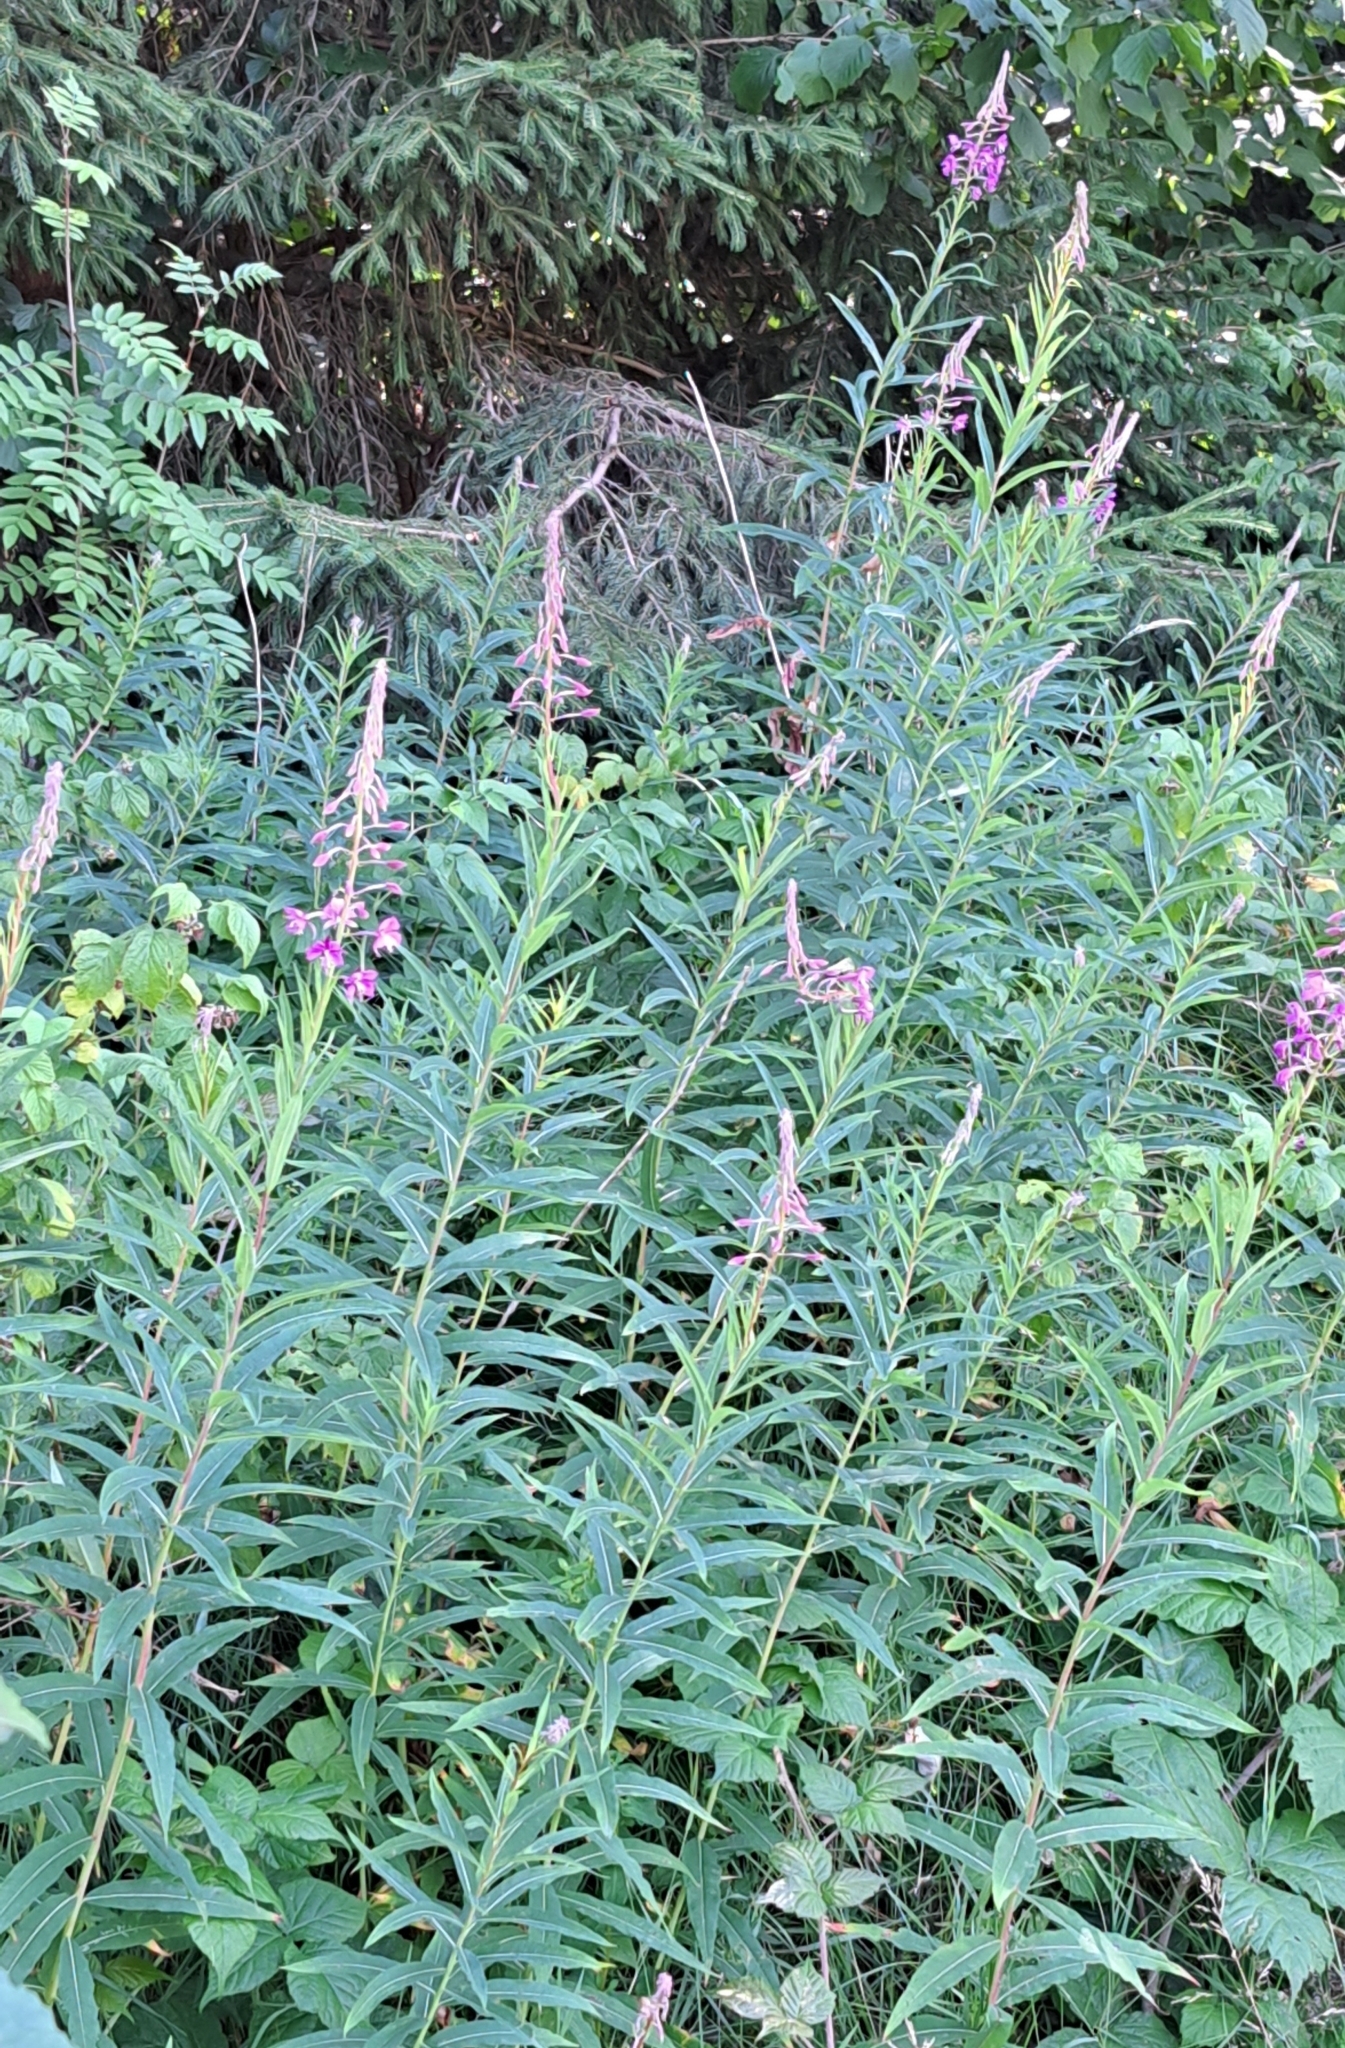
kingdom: Plantae
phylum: Tracheophyta
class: Magnoliopsida
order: Myrtales
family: Onagraceae
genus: Chamaenerion
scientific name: Chamaenerion angustifolium
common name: Fireweed
